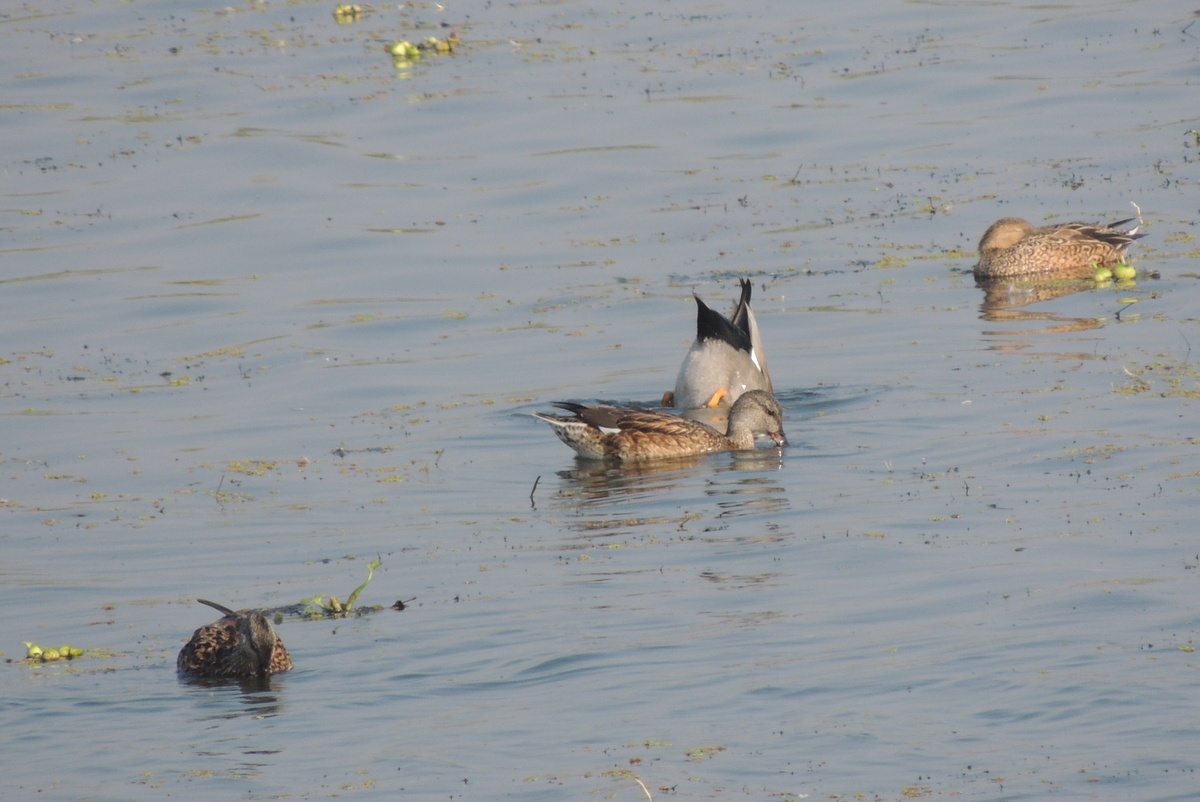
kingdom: Animalia
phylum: Chordata
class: Aves
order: Anseriformes
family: Anatidae
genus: Anas
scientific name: Anas crecca
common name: Eurasian teal
